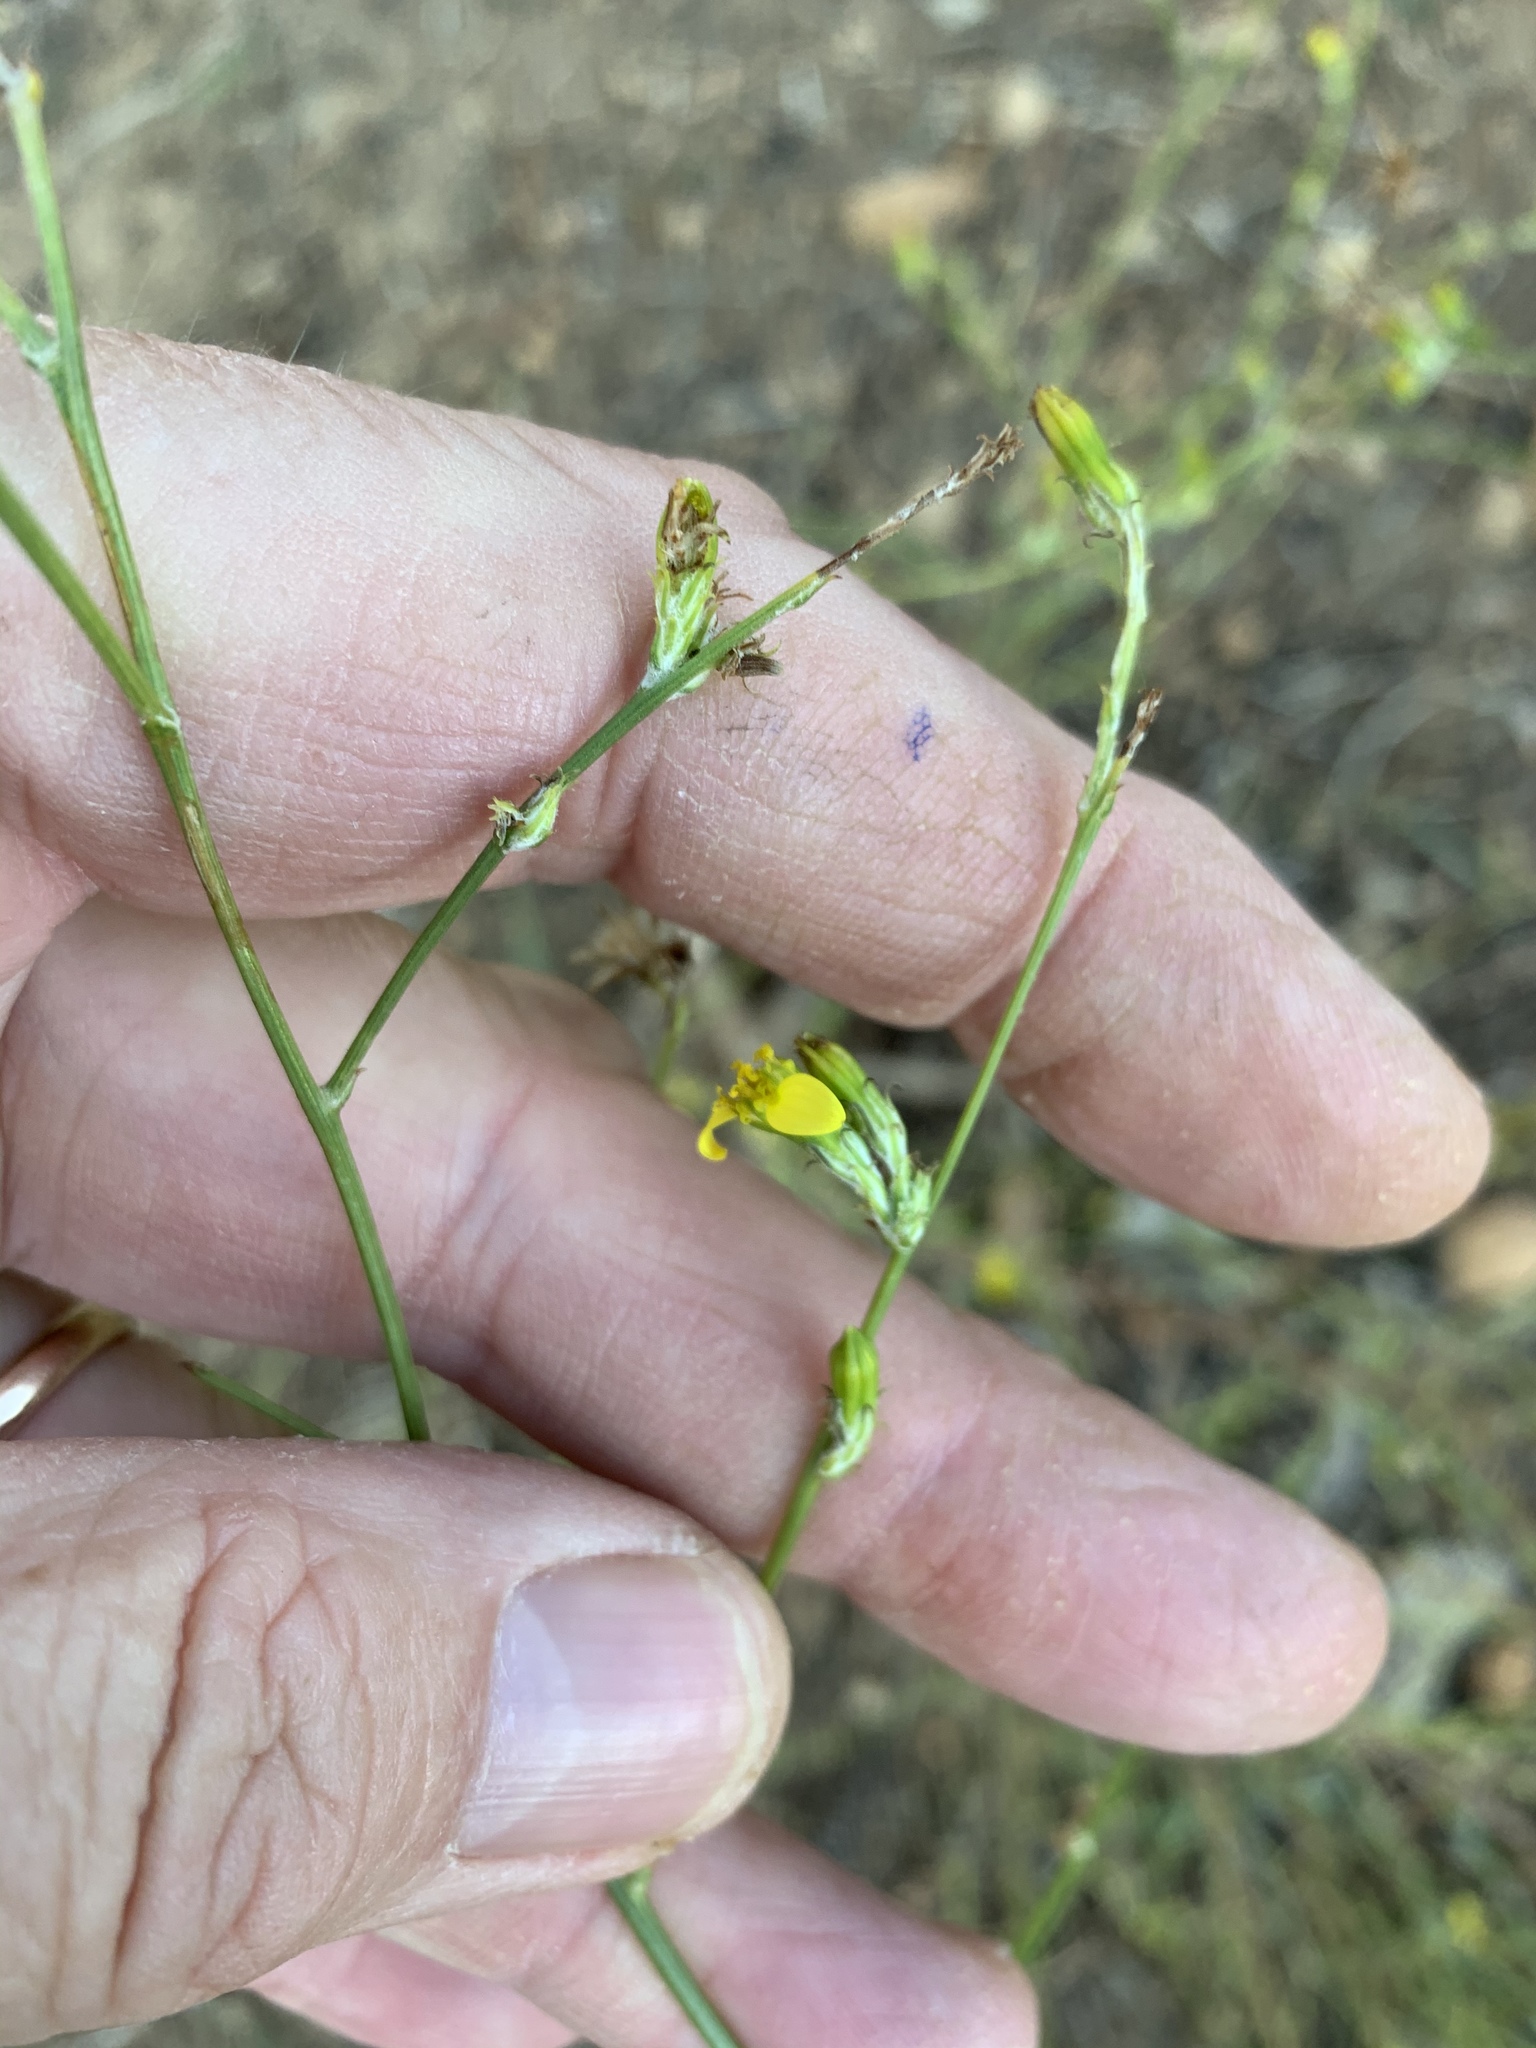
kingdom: Plantae
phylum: Tracheophyta
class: Magnoliopsida
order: Asterales
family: Asteraceae
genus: Senecio
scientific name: Senecio pubigerus
